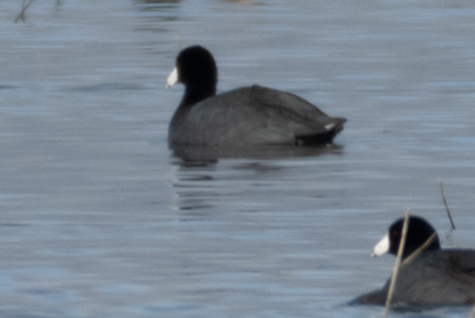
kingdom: Animalia
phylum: Chordata
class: Aves
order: Gruiformes
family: Rallidae
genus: Fulica
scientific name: Fulica americana
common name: American coot
